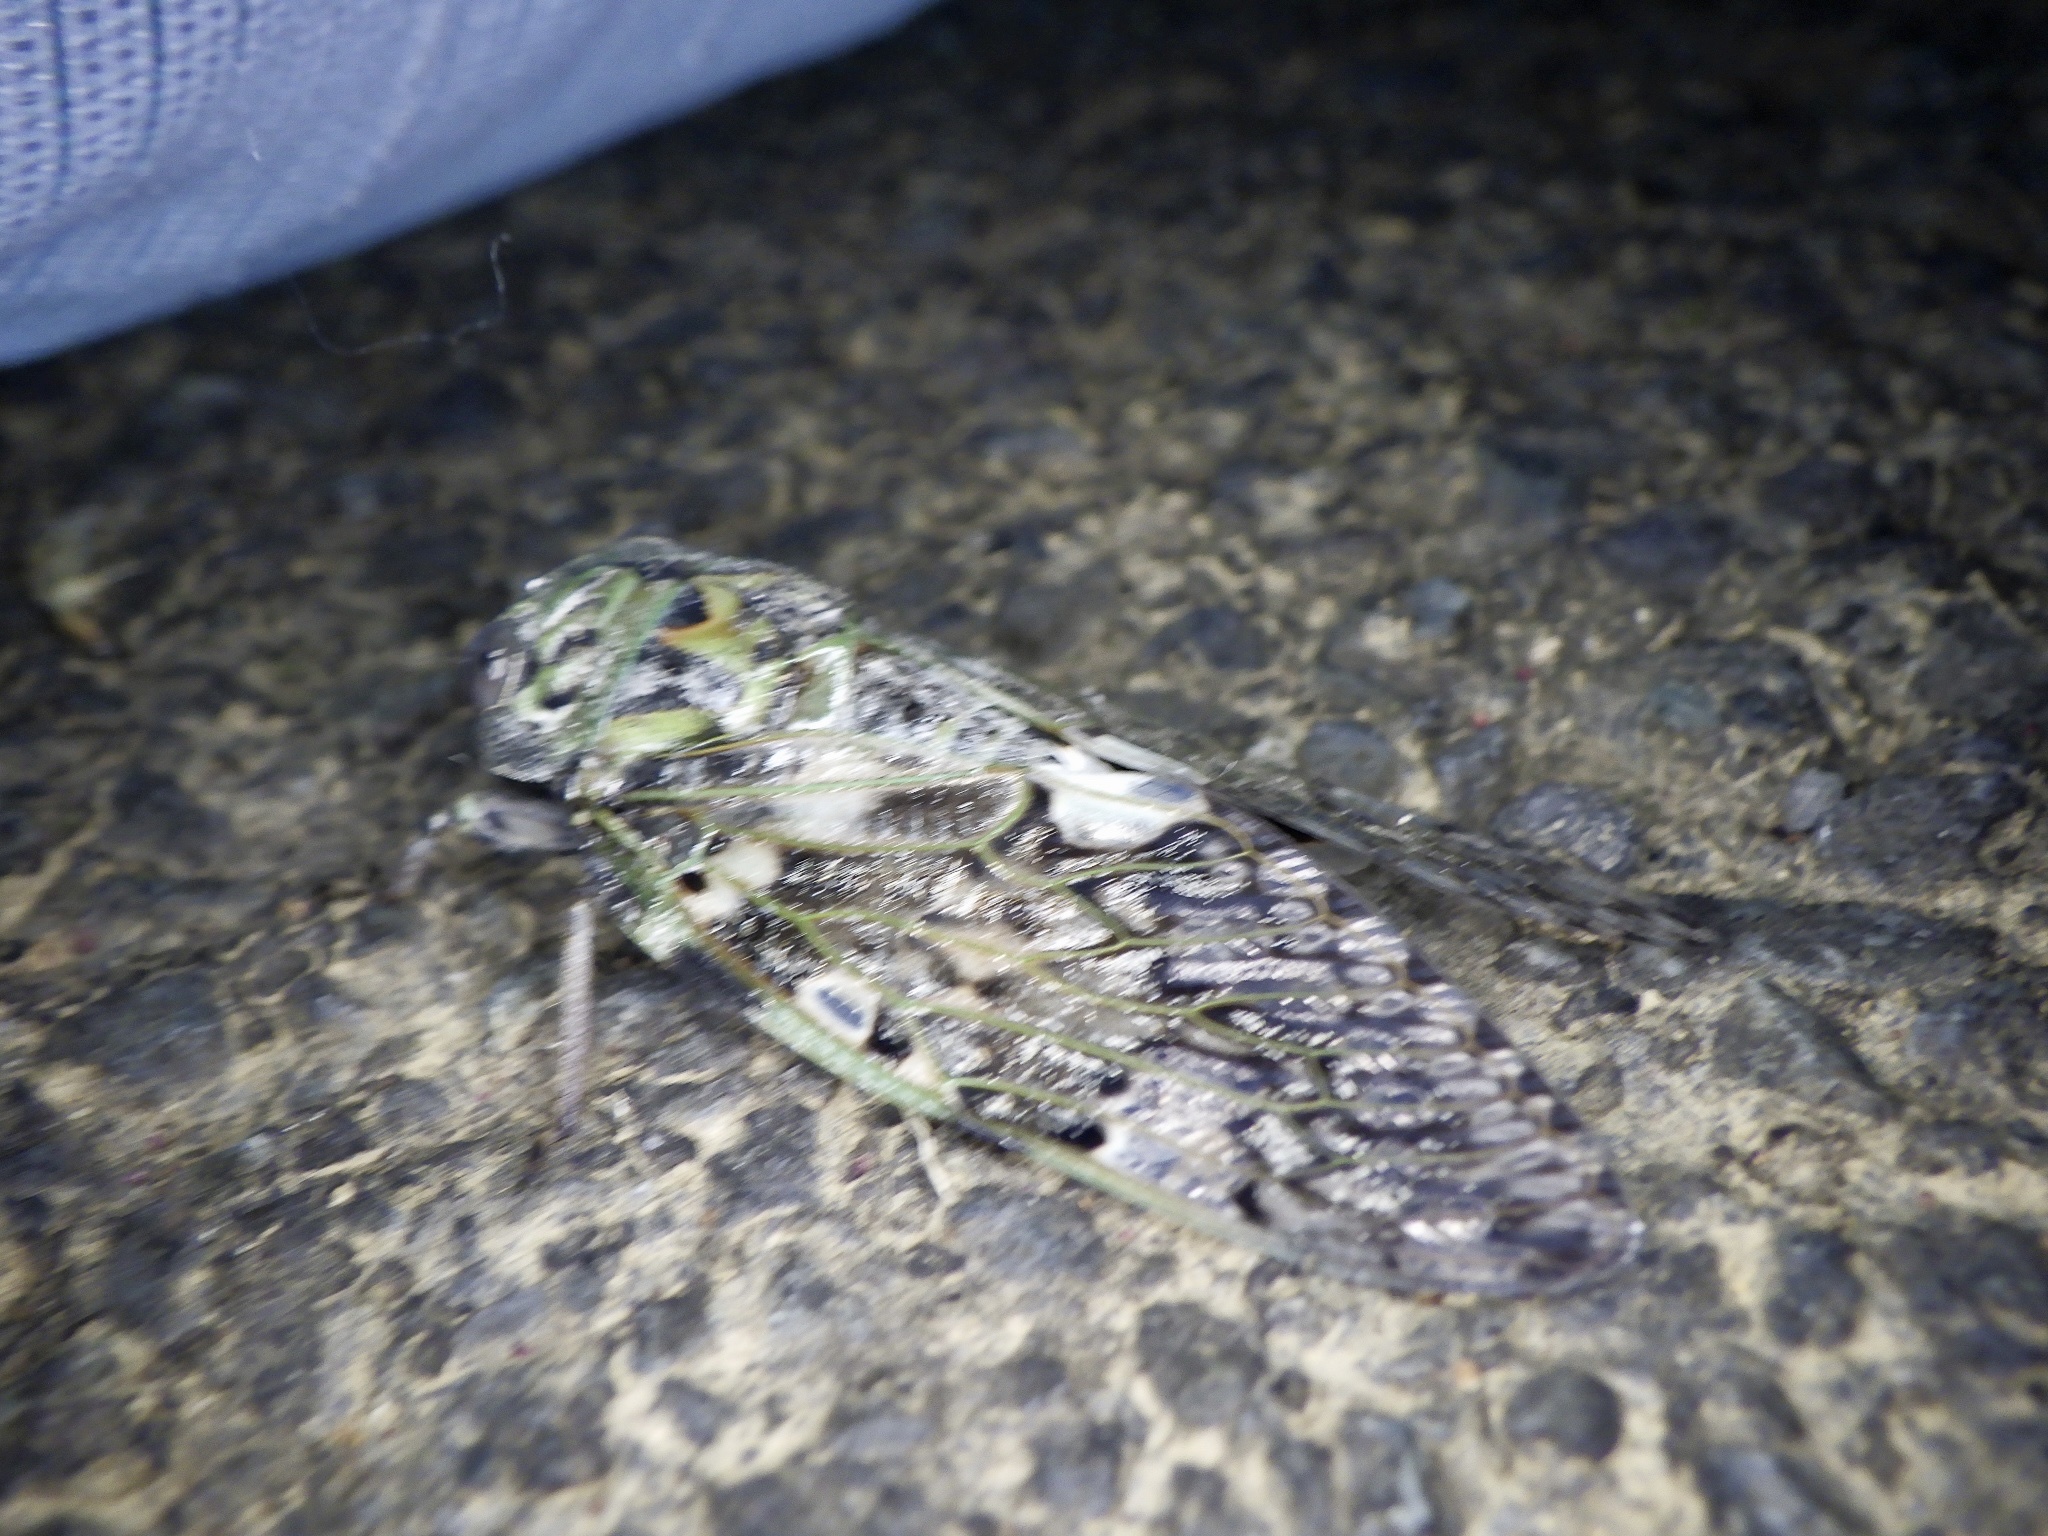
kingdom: Animalia
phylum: Arthropoda
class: Insecta
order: Hemiptera
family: Cicadidae
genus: Platypleura
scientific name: Platypleura kaempferi
